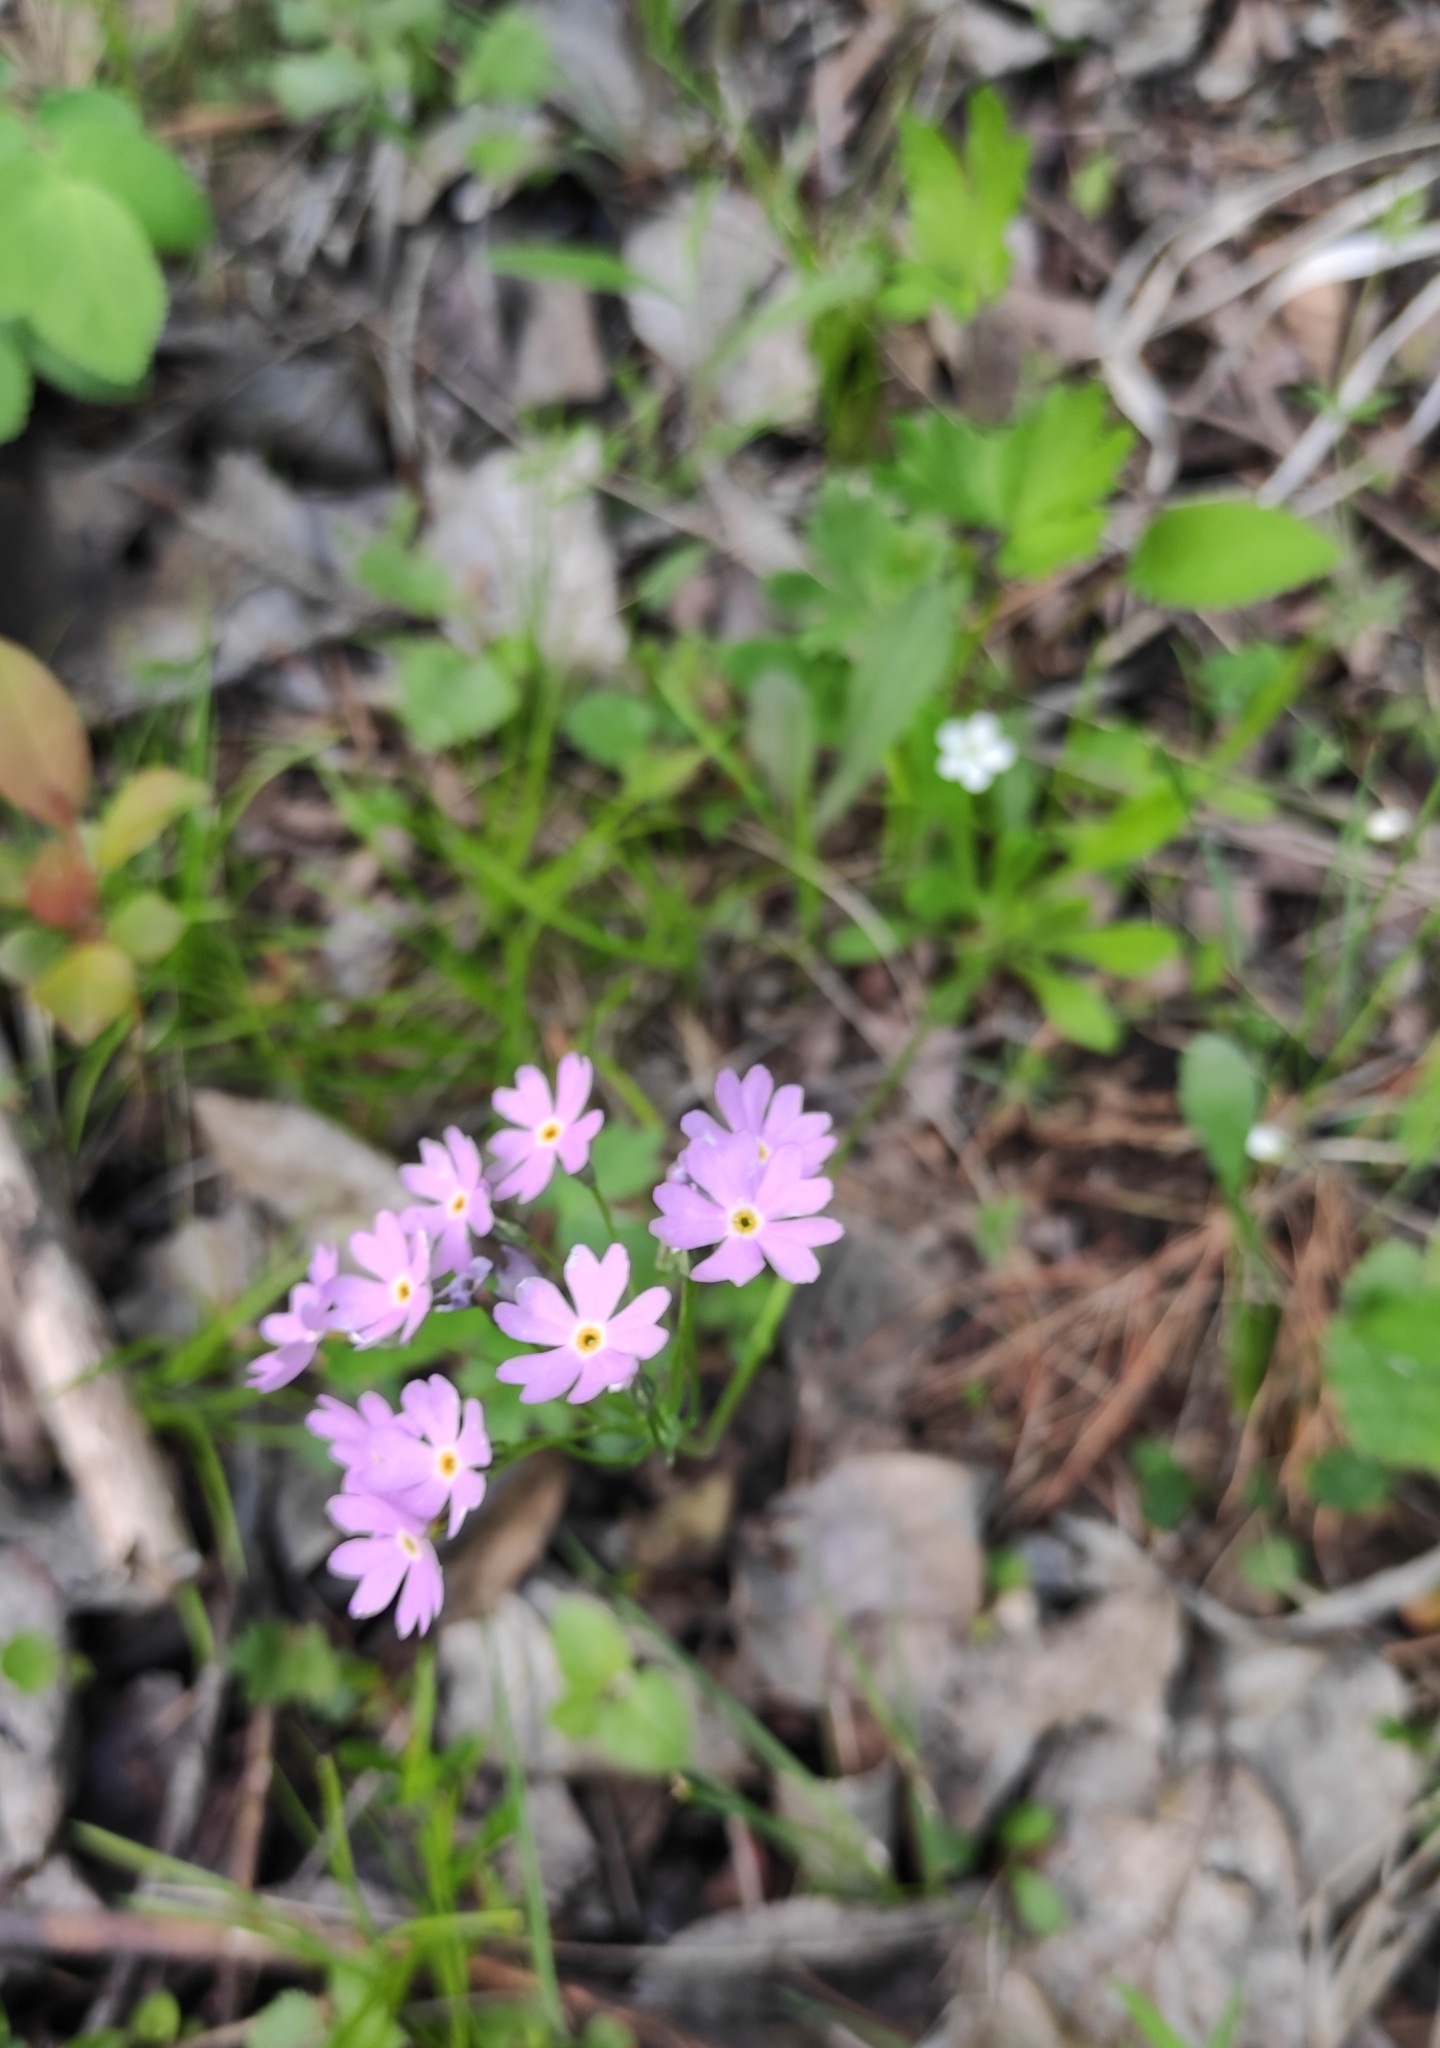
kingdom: Plantae
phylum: Tracheophyta
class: Magnoliopsida
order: Ericales
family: Primulaceae
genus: Primula
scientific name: Primula farinosa
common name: Bird's-eye primrose
